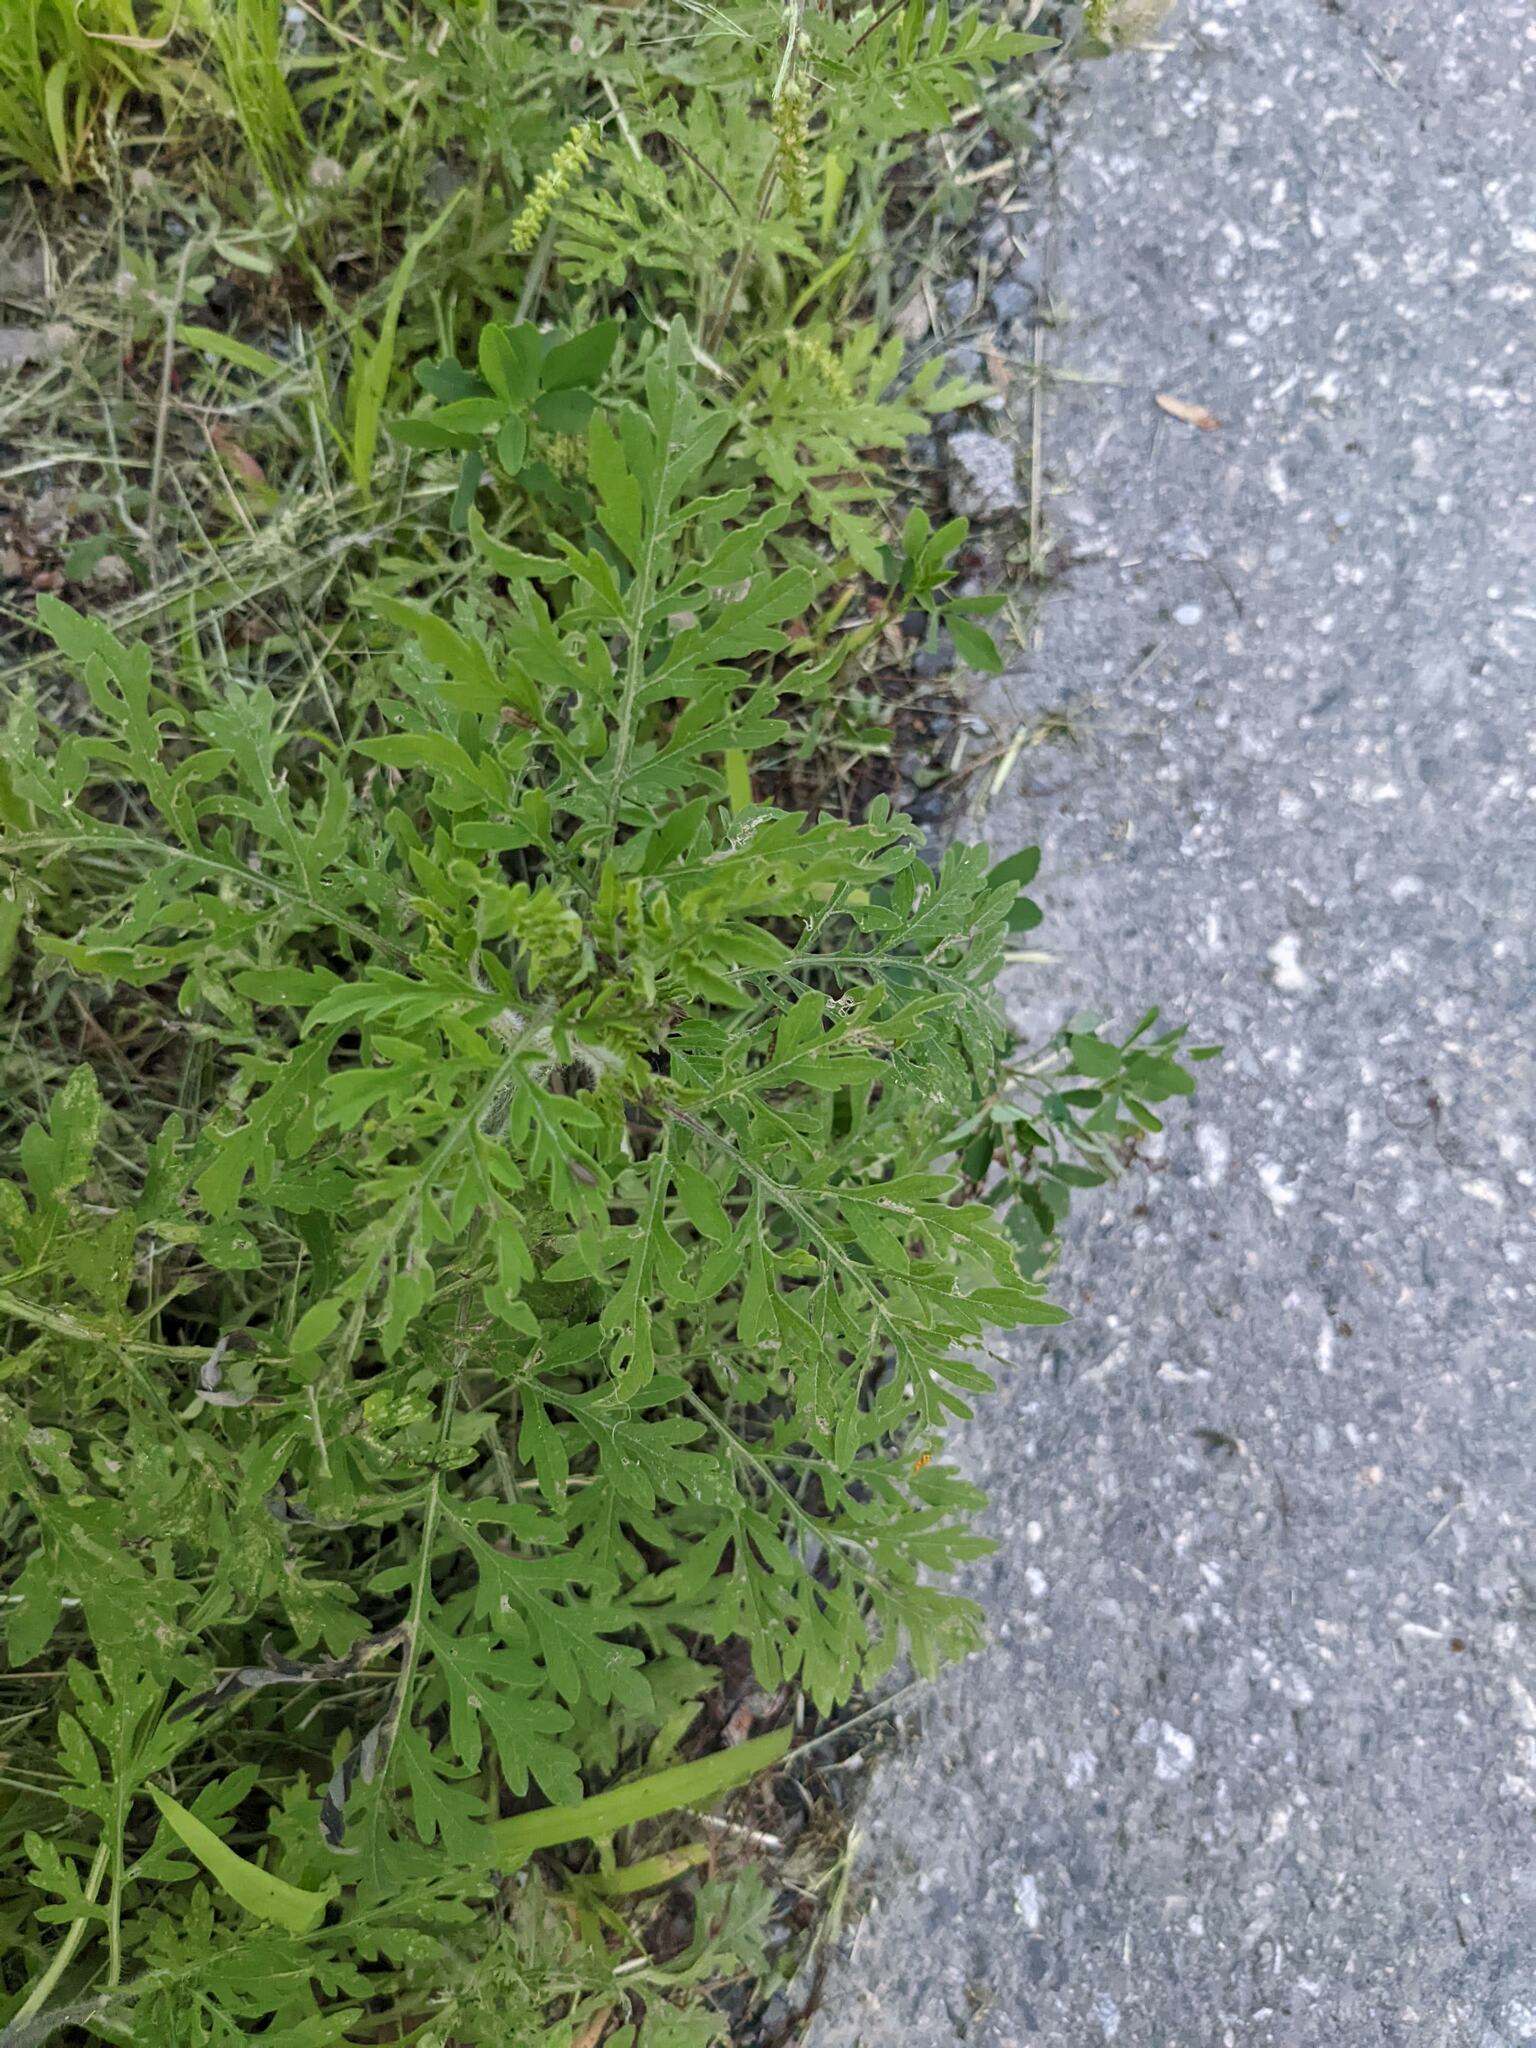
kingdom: Plantae
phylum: Tracheophyta
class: Magnoliopsida
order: Asterales
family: Asteraceae
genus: Ambrosia
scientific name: Ambrosia artemisiifolia
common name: Annual ragweed
